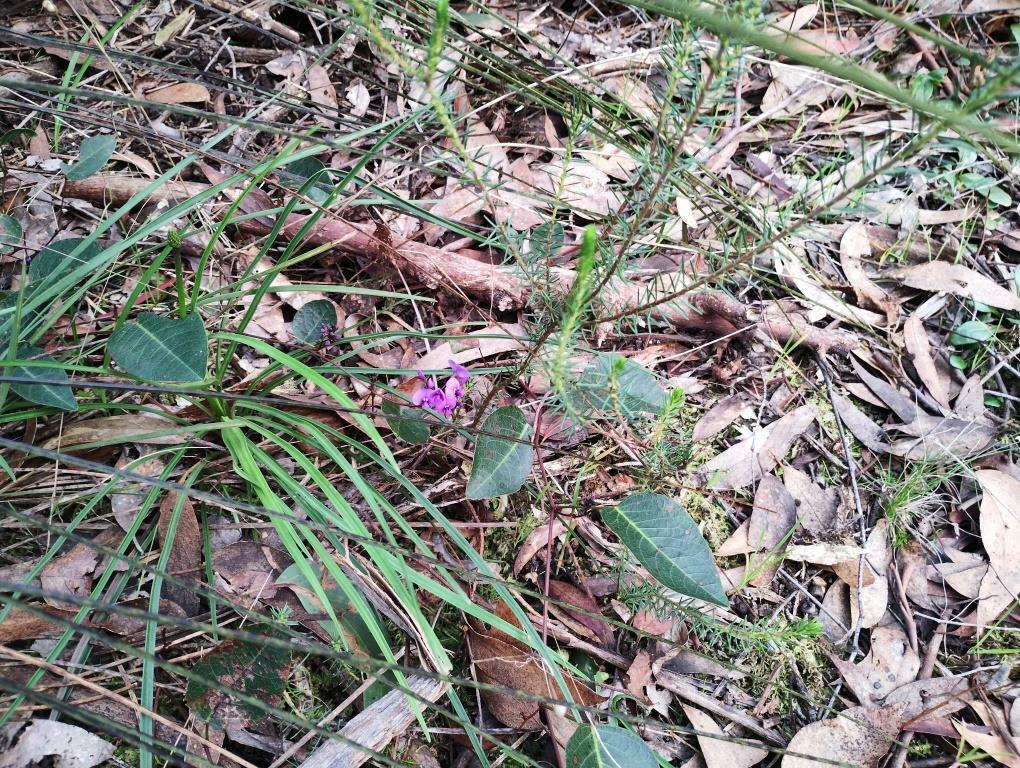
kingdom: Plantae
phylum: Tracheophyta
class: Magnoliopsida
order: Fabales
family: Fabaceae
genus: Hardenbergia
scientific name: Hardenbergia violacea
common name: Coral-pea
